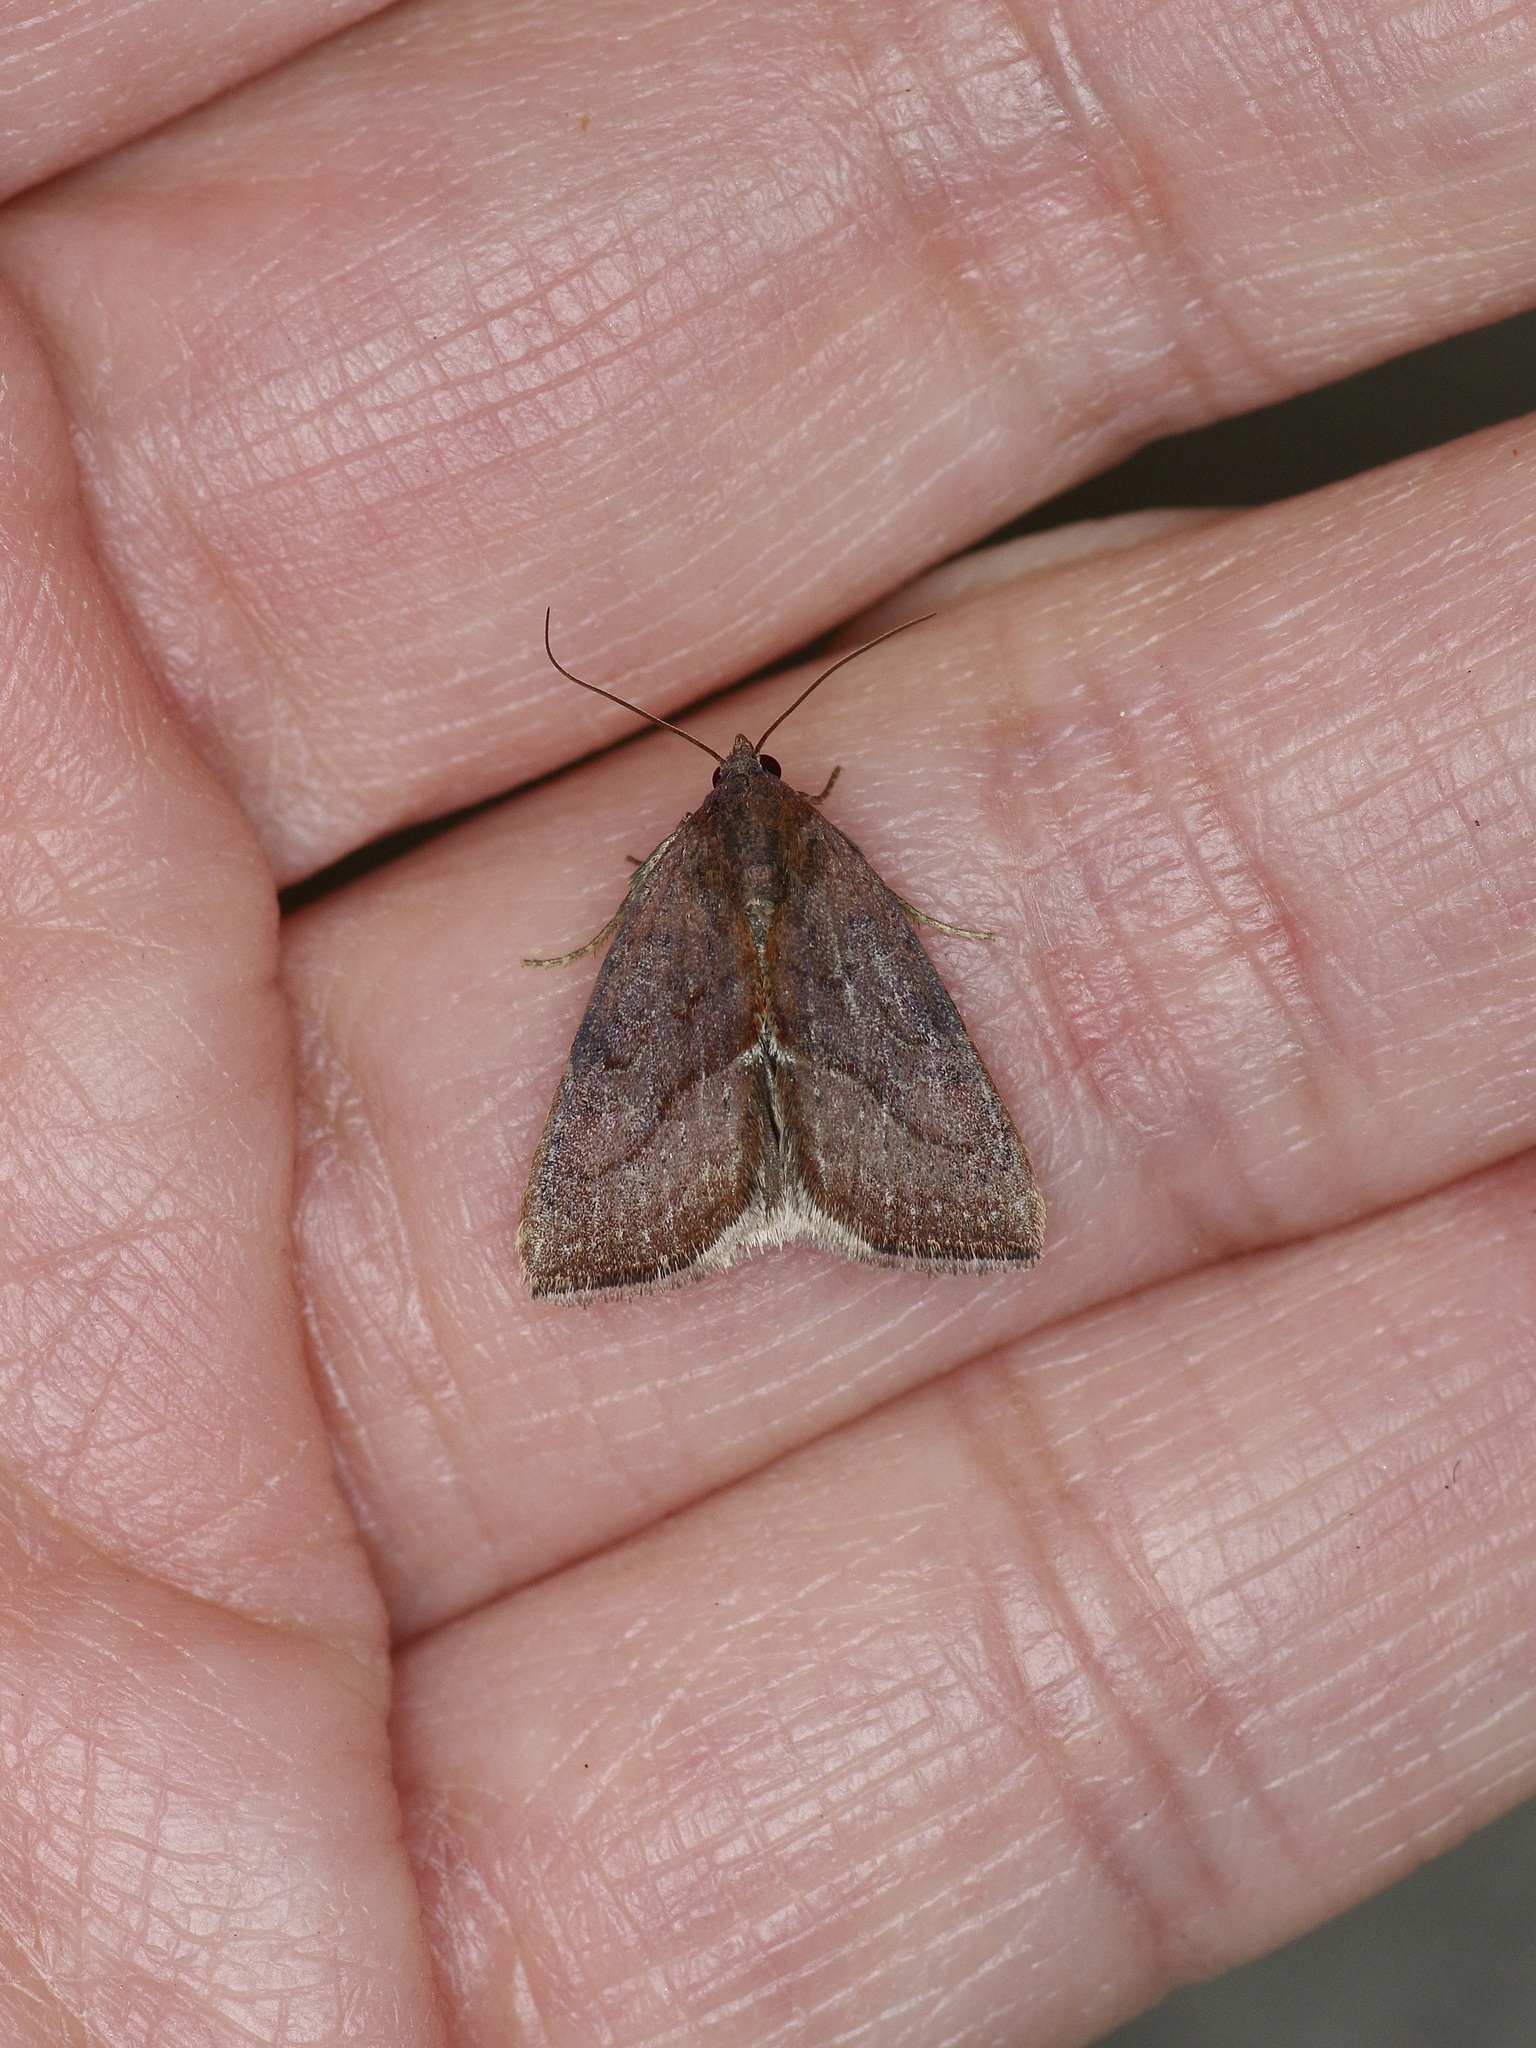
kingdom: Animalia
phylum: Arthropoda
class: Insecta
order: Lepidoptera
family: Noctuidae
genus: Galgula
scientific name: Galgula partita
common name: Wedgeling
